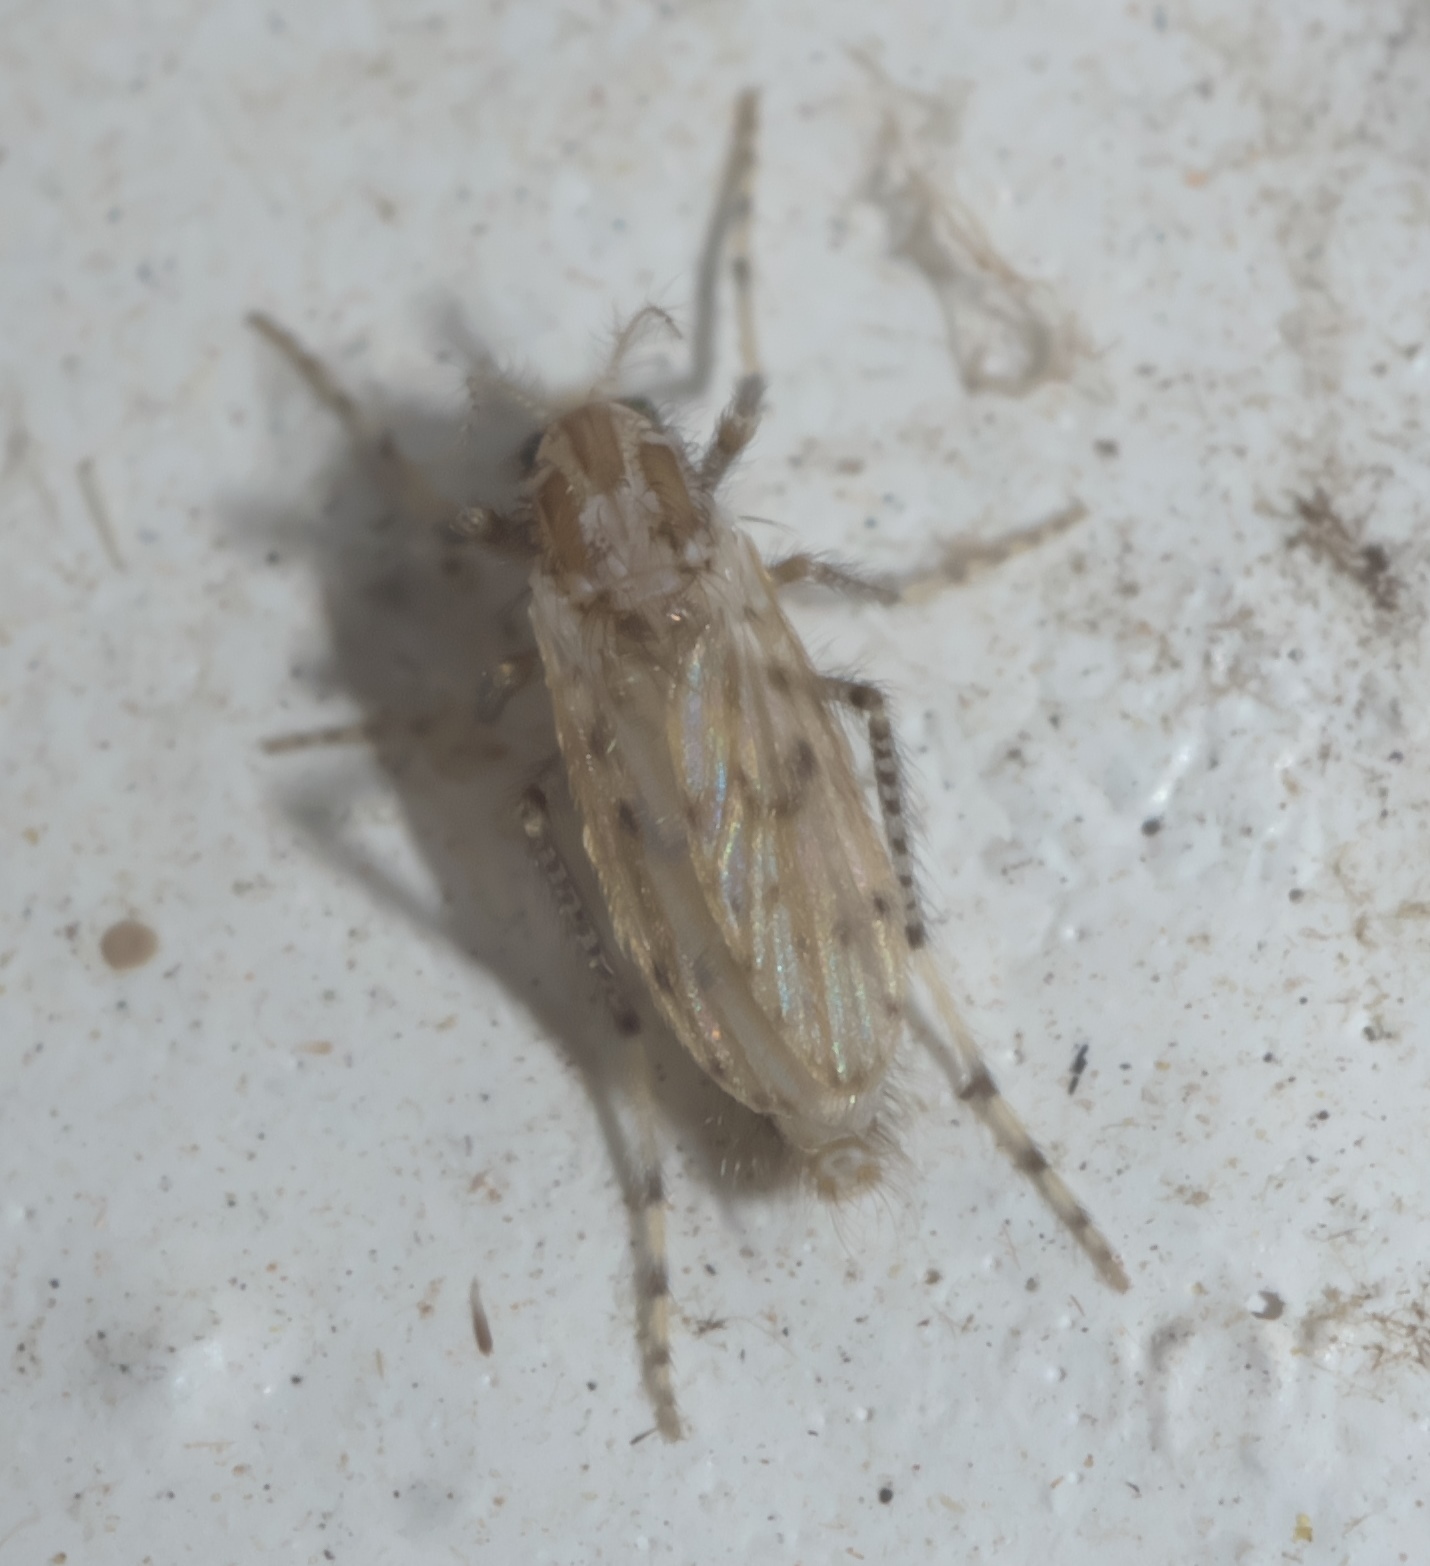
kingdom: Animalia
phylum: Arthropoda
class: Insecta
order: Diptera
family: Chaoboridae
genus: Chaoborus
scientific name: Chaoborus punctipennis
